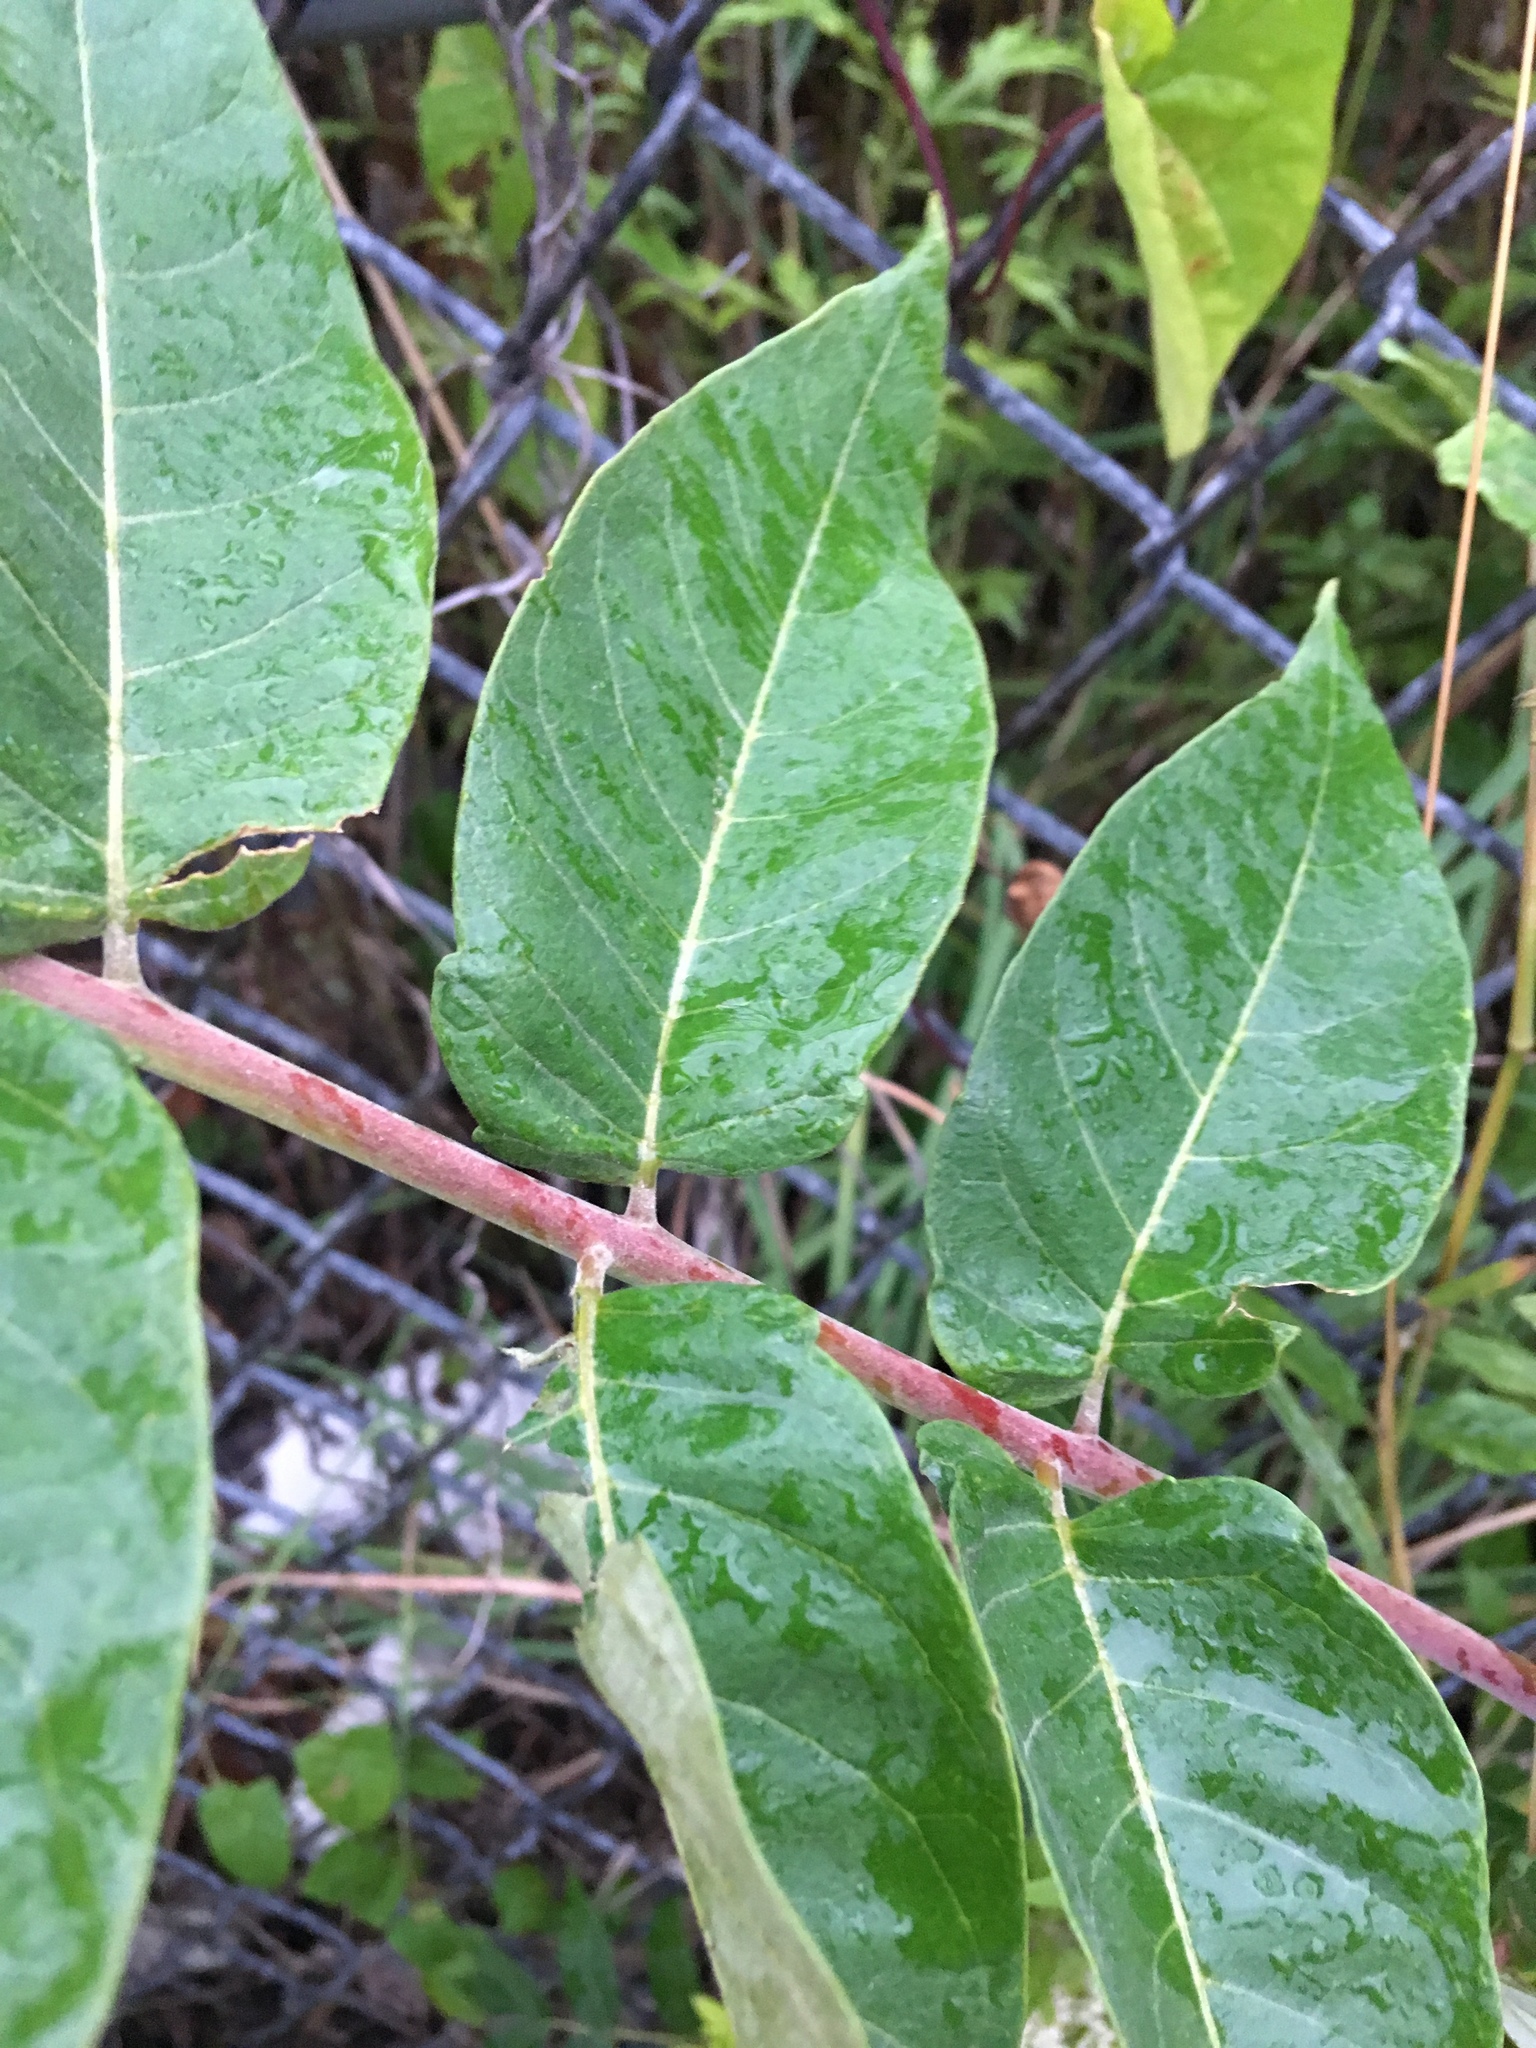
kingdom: Plantae
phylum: Tracheophyta
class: Magnoliopsida
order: Sapindales
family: Simaroubaceae
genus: Ailanthus
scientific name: Ailanthus altissima
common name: Tree-of-heaven
